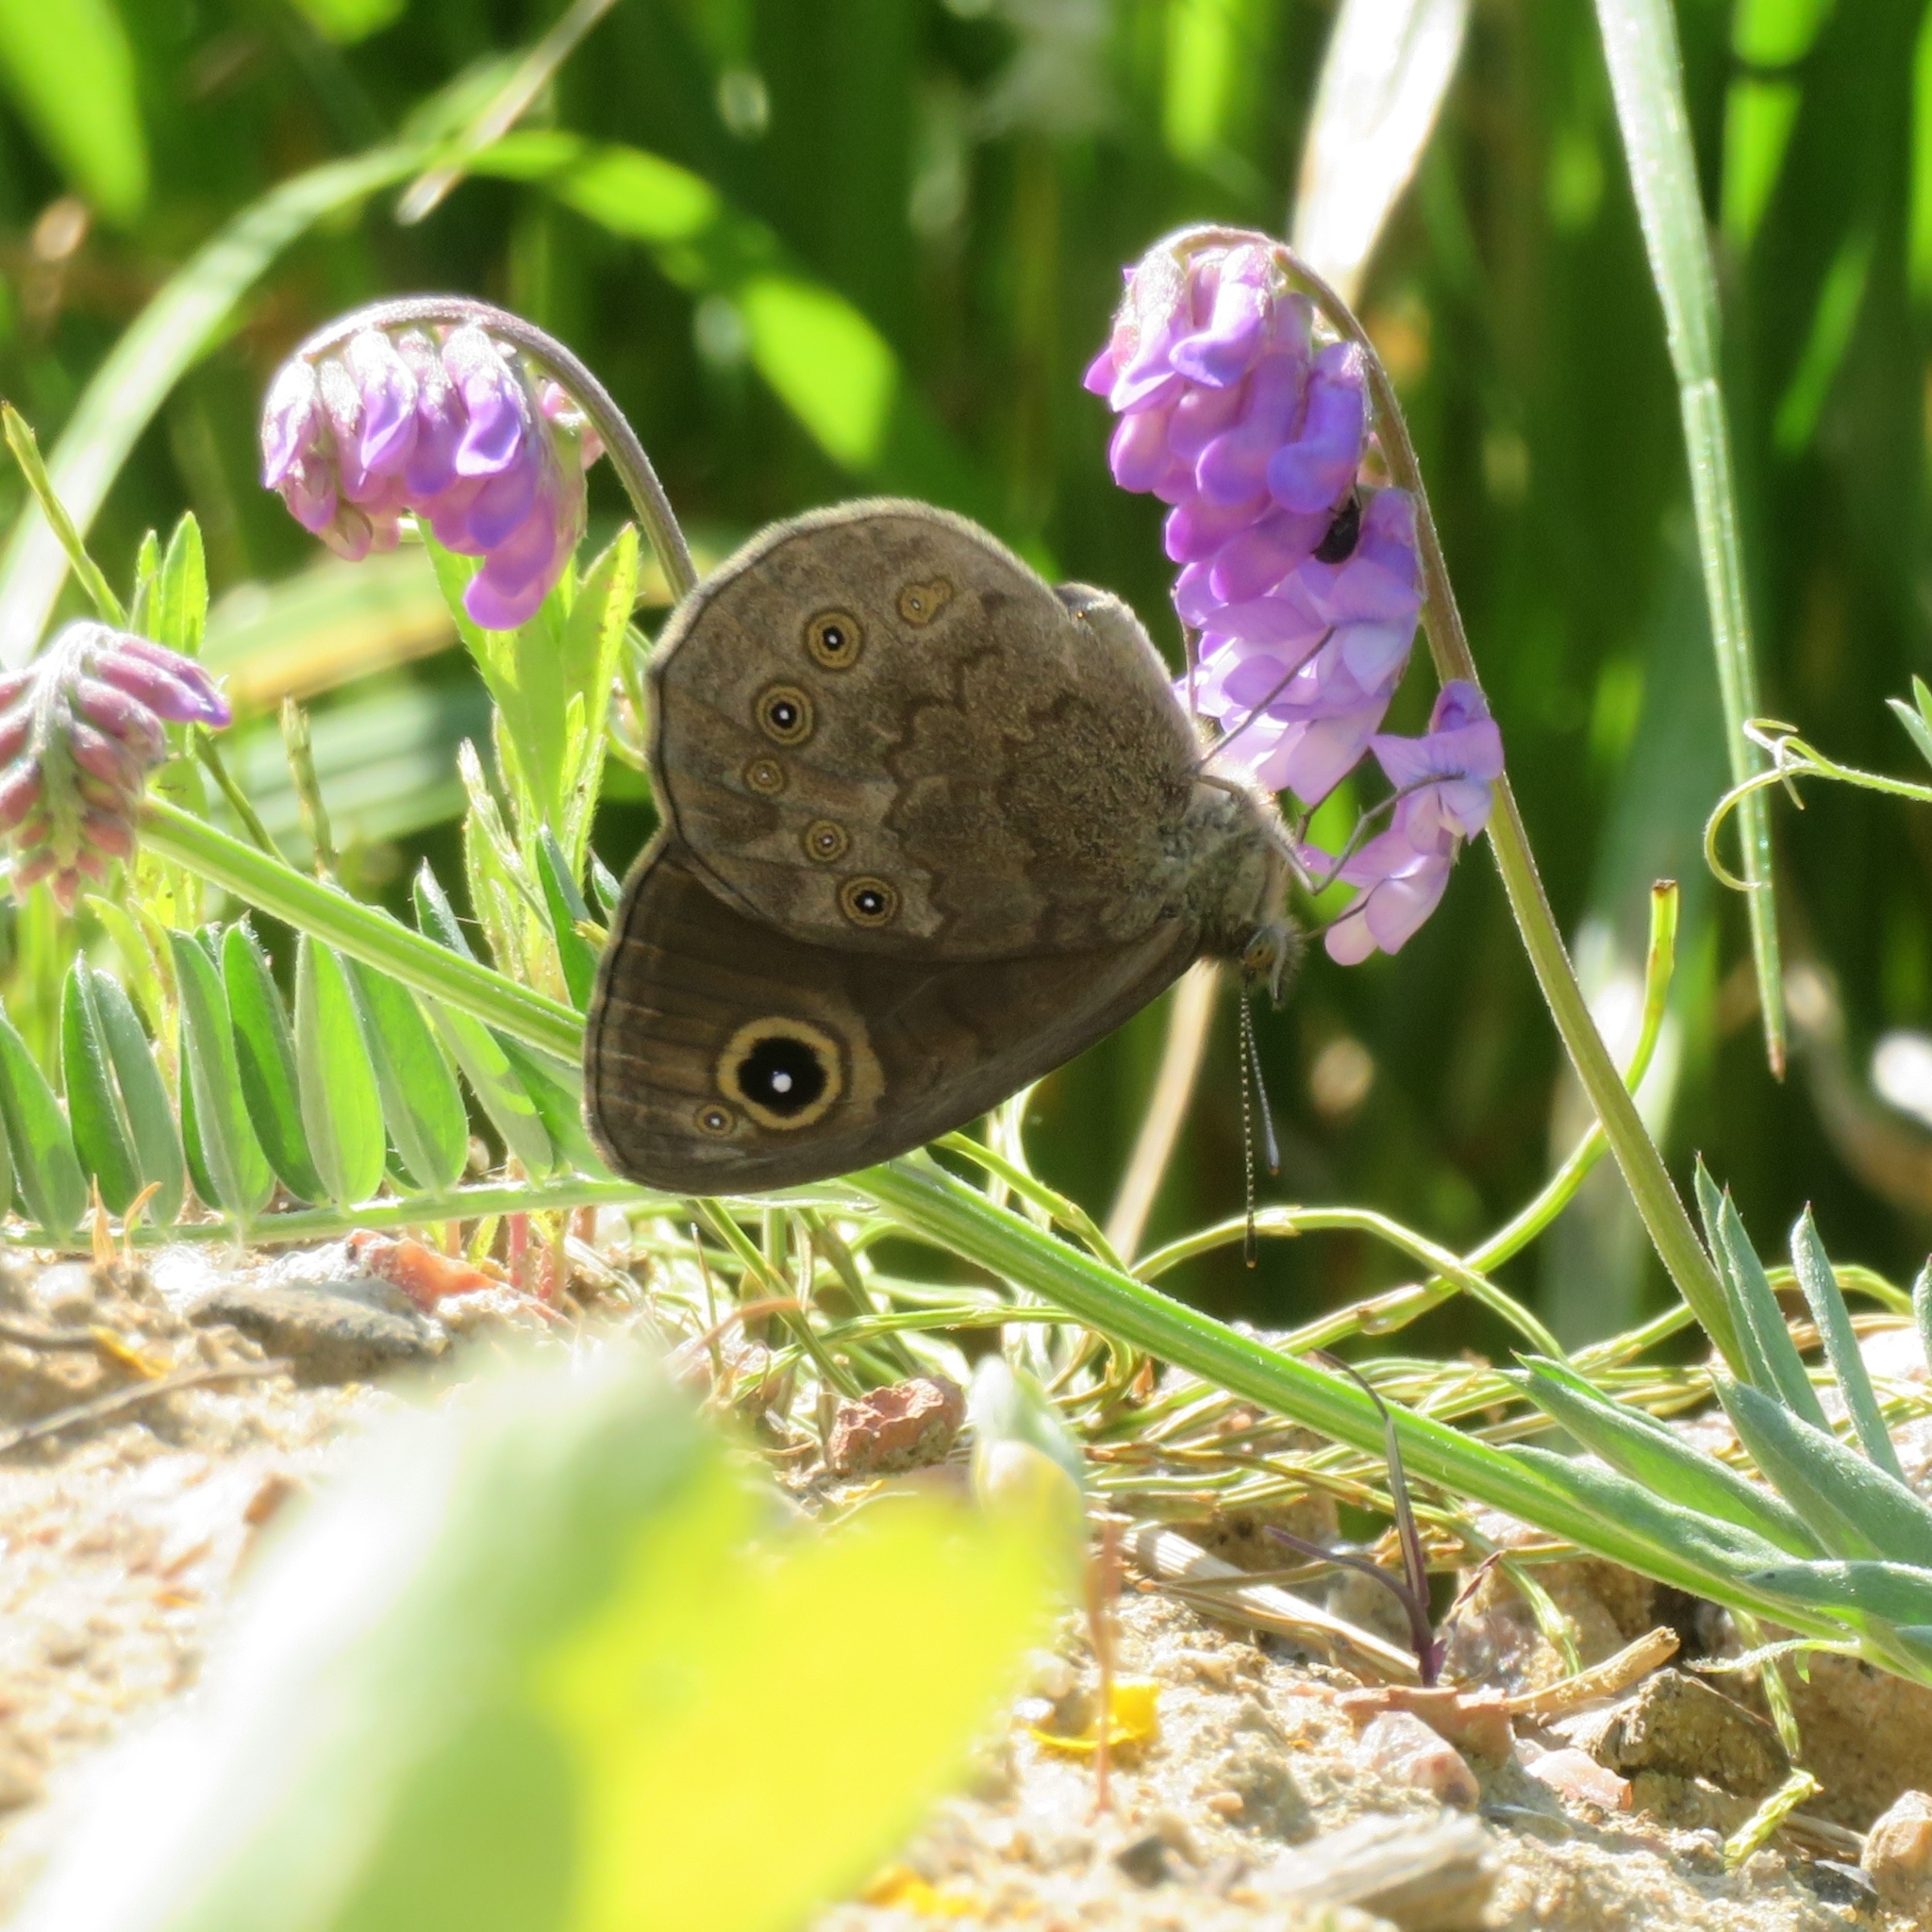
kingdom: Animalia
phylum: Arthropoda
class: Insecta
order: Lepidoptera
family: Nymphalidae
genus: Pararge
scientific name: Pararge Lasiommata maera
